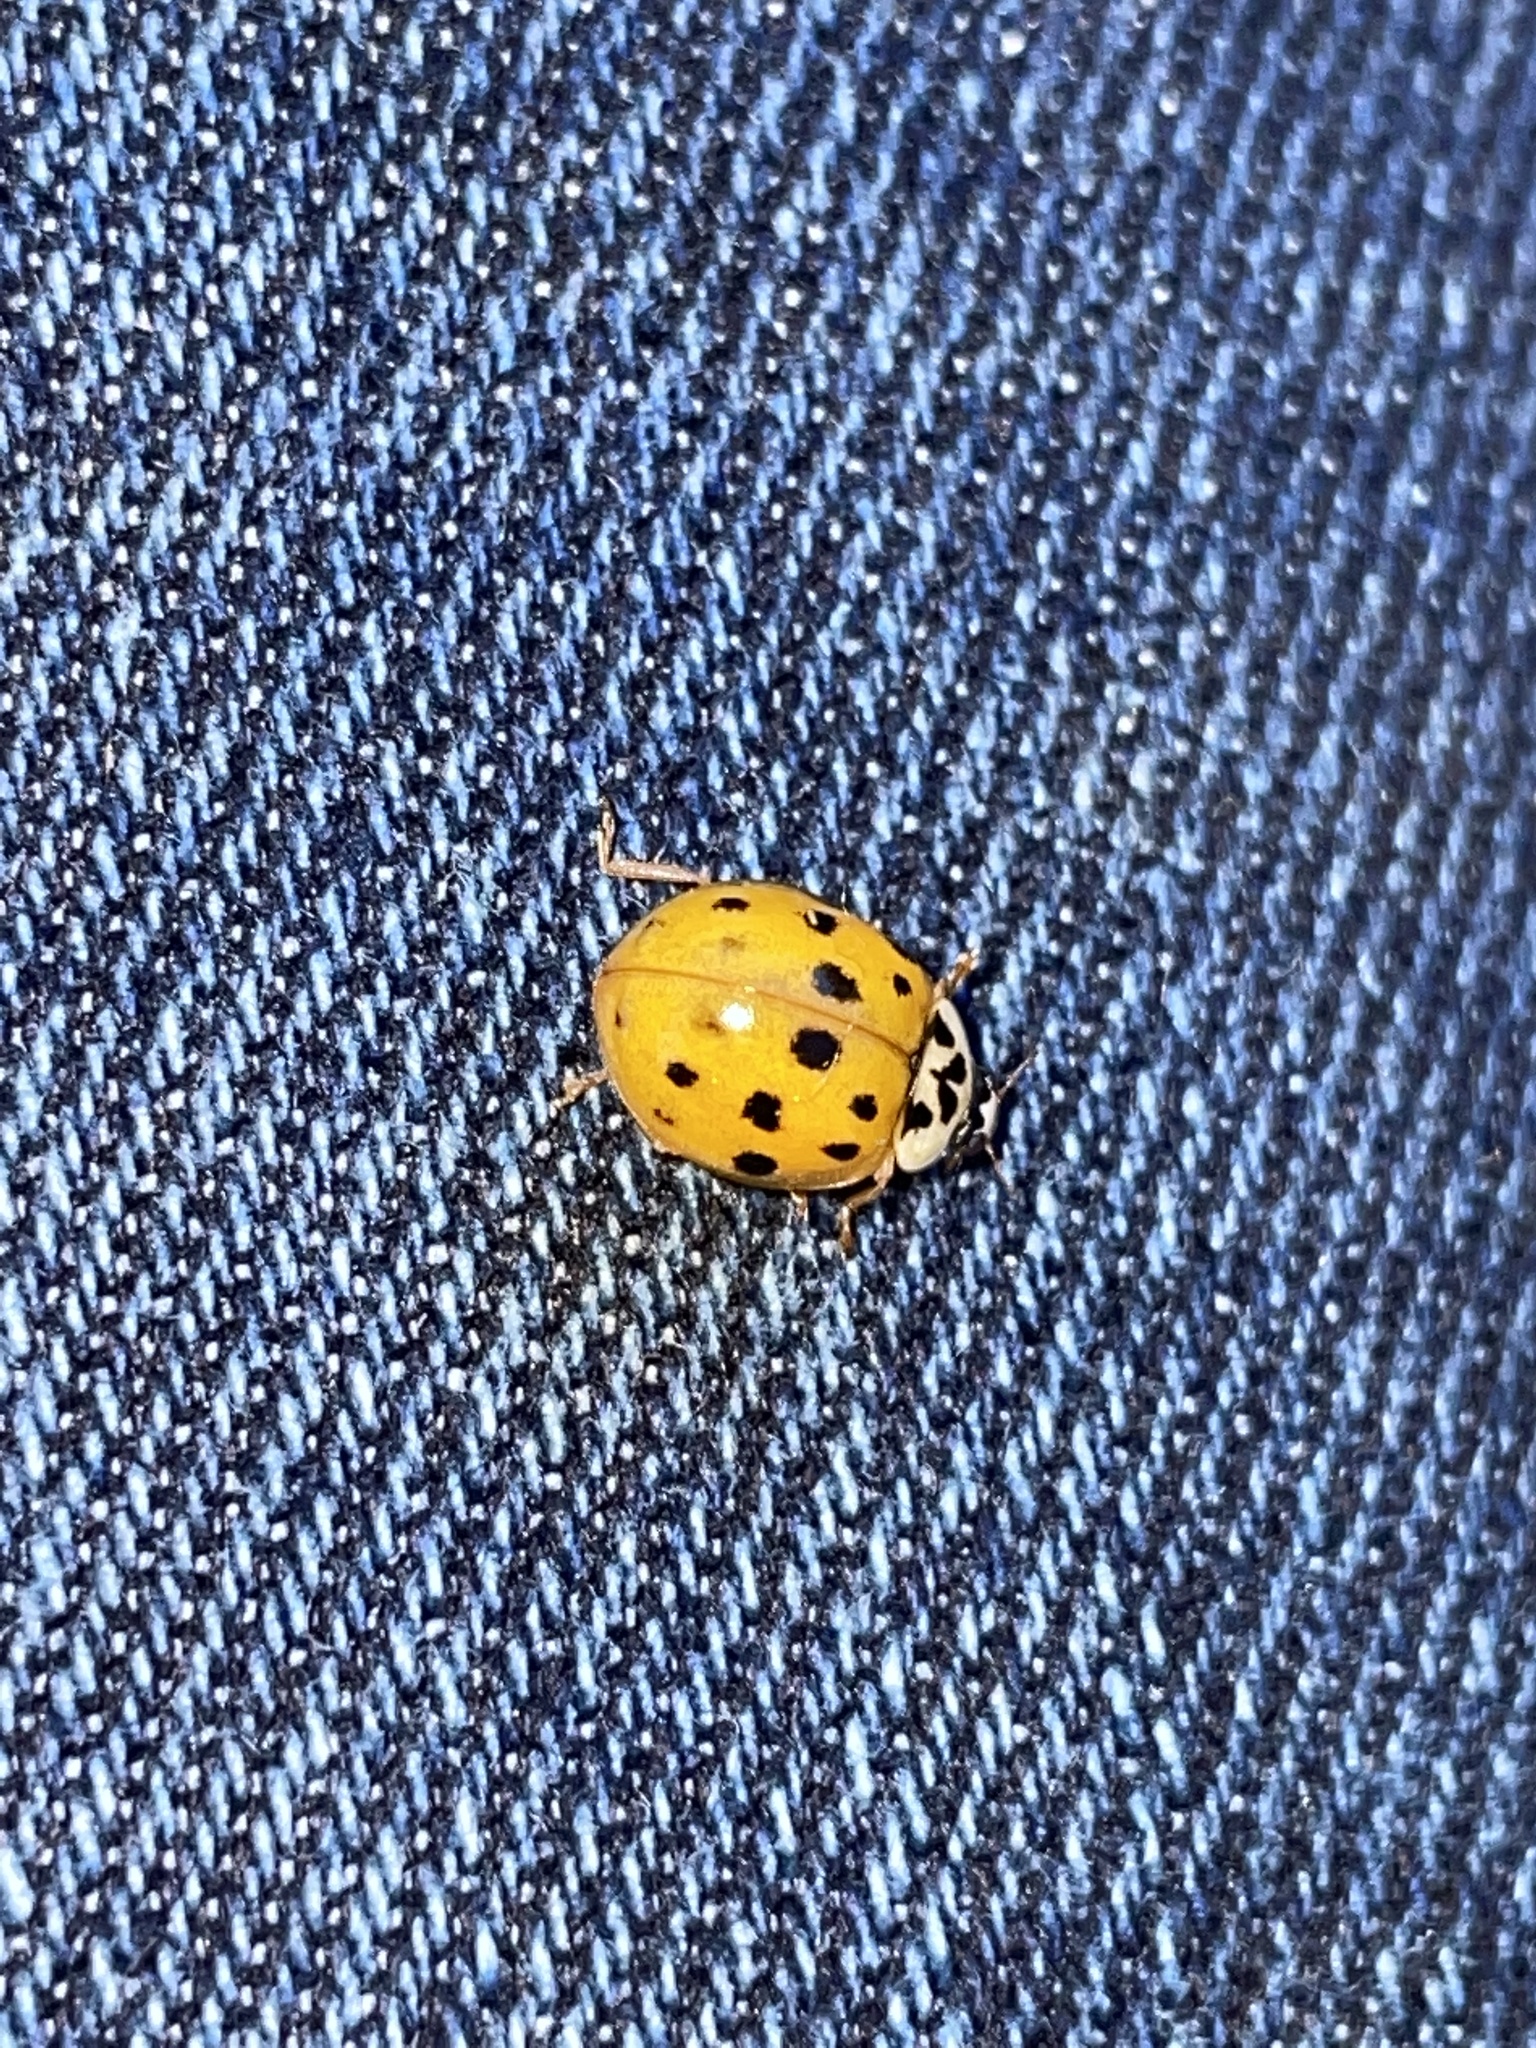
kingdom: Animalia
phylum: Arthropoda
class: Insecta
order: Coleoptera
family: Coccinellidae
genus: Harmonia
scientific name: Harmonia axyridis
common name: Harlequin ladybird
